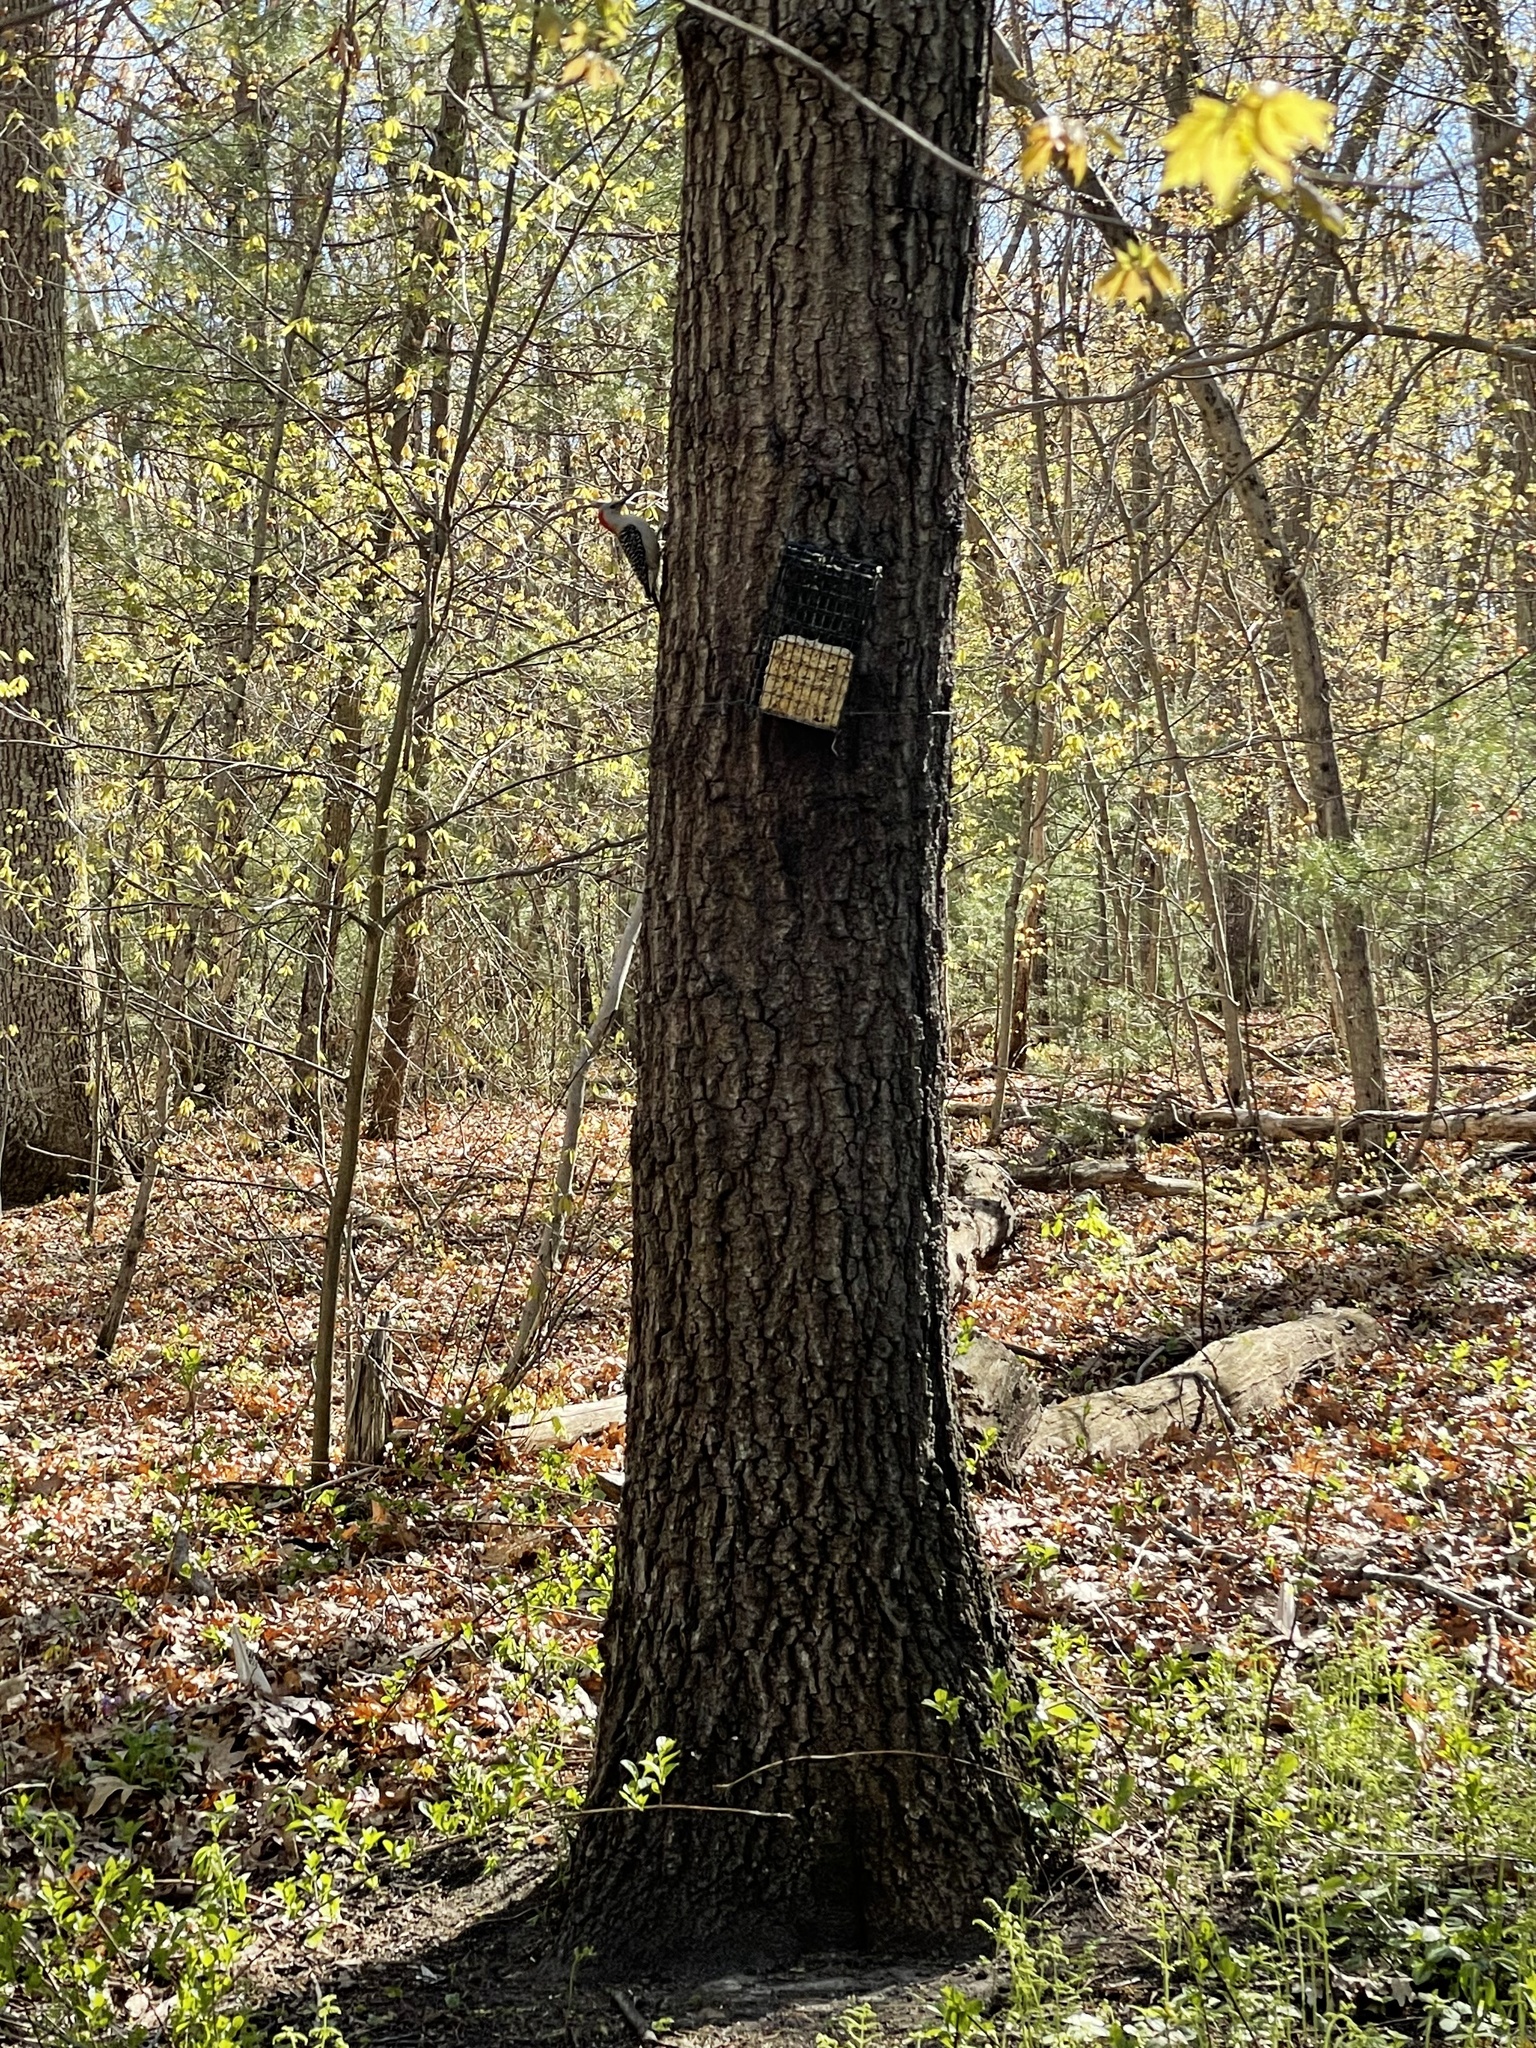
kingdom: Animalia
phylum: Chordata
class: Aves
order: Piciformes
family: Picidae
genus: Melanerpes
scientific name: Melanerpes carolinus
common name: Red-bellied woodpecker
